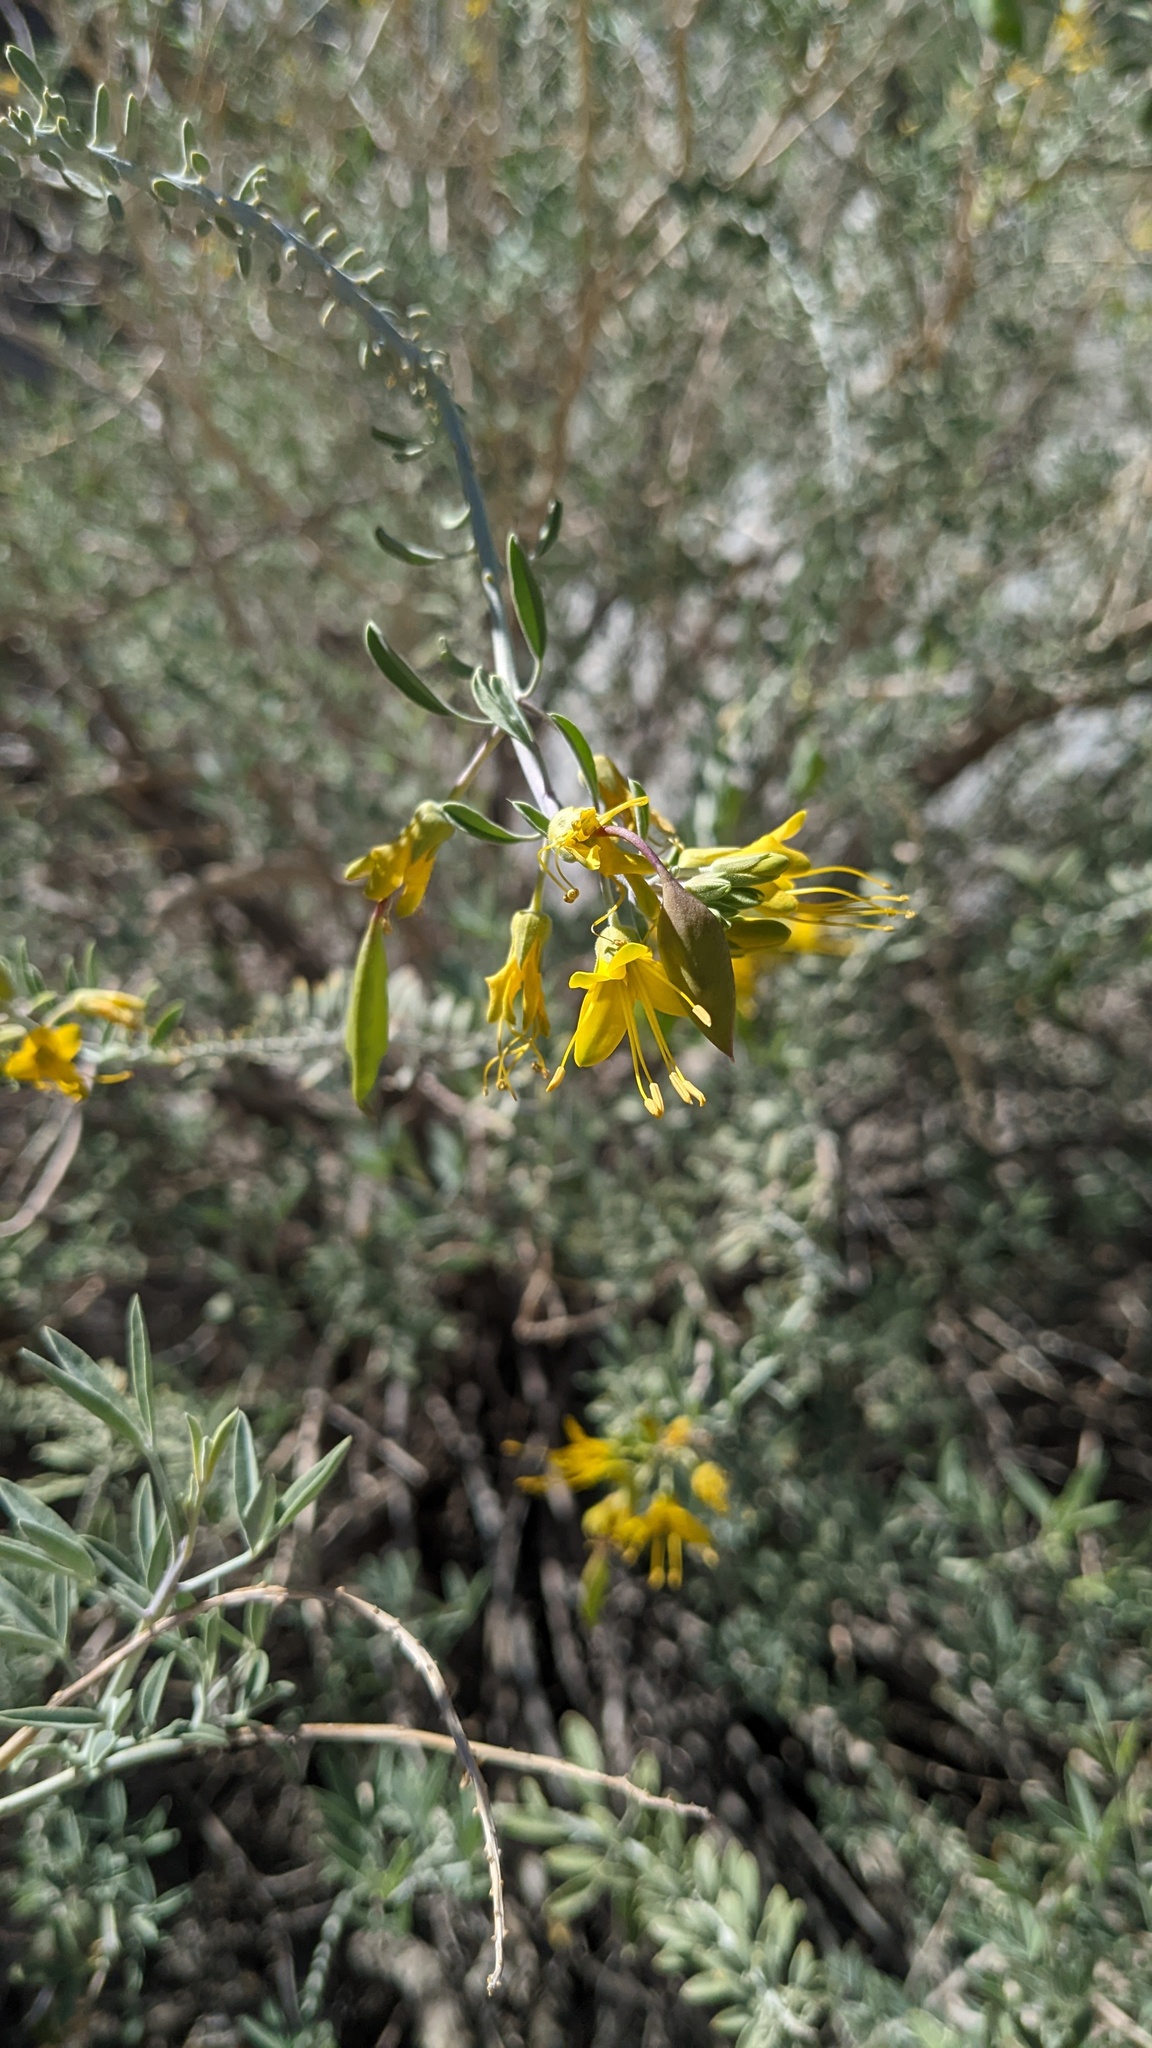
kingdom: Plantae
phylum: Tracheophyta
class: Magnoliopsida
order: Brassicales
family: Cleomaceae
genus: Cleomella
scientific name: Cleomella arborea
